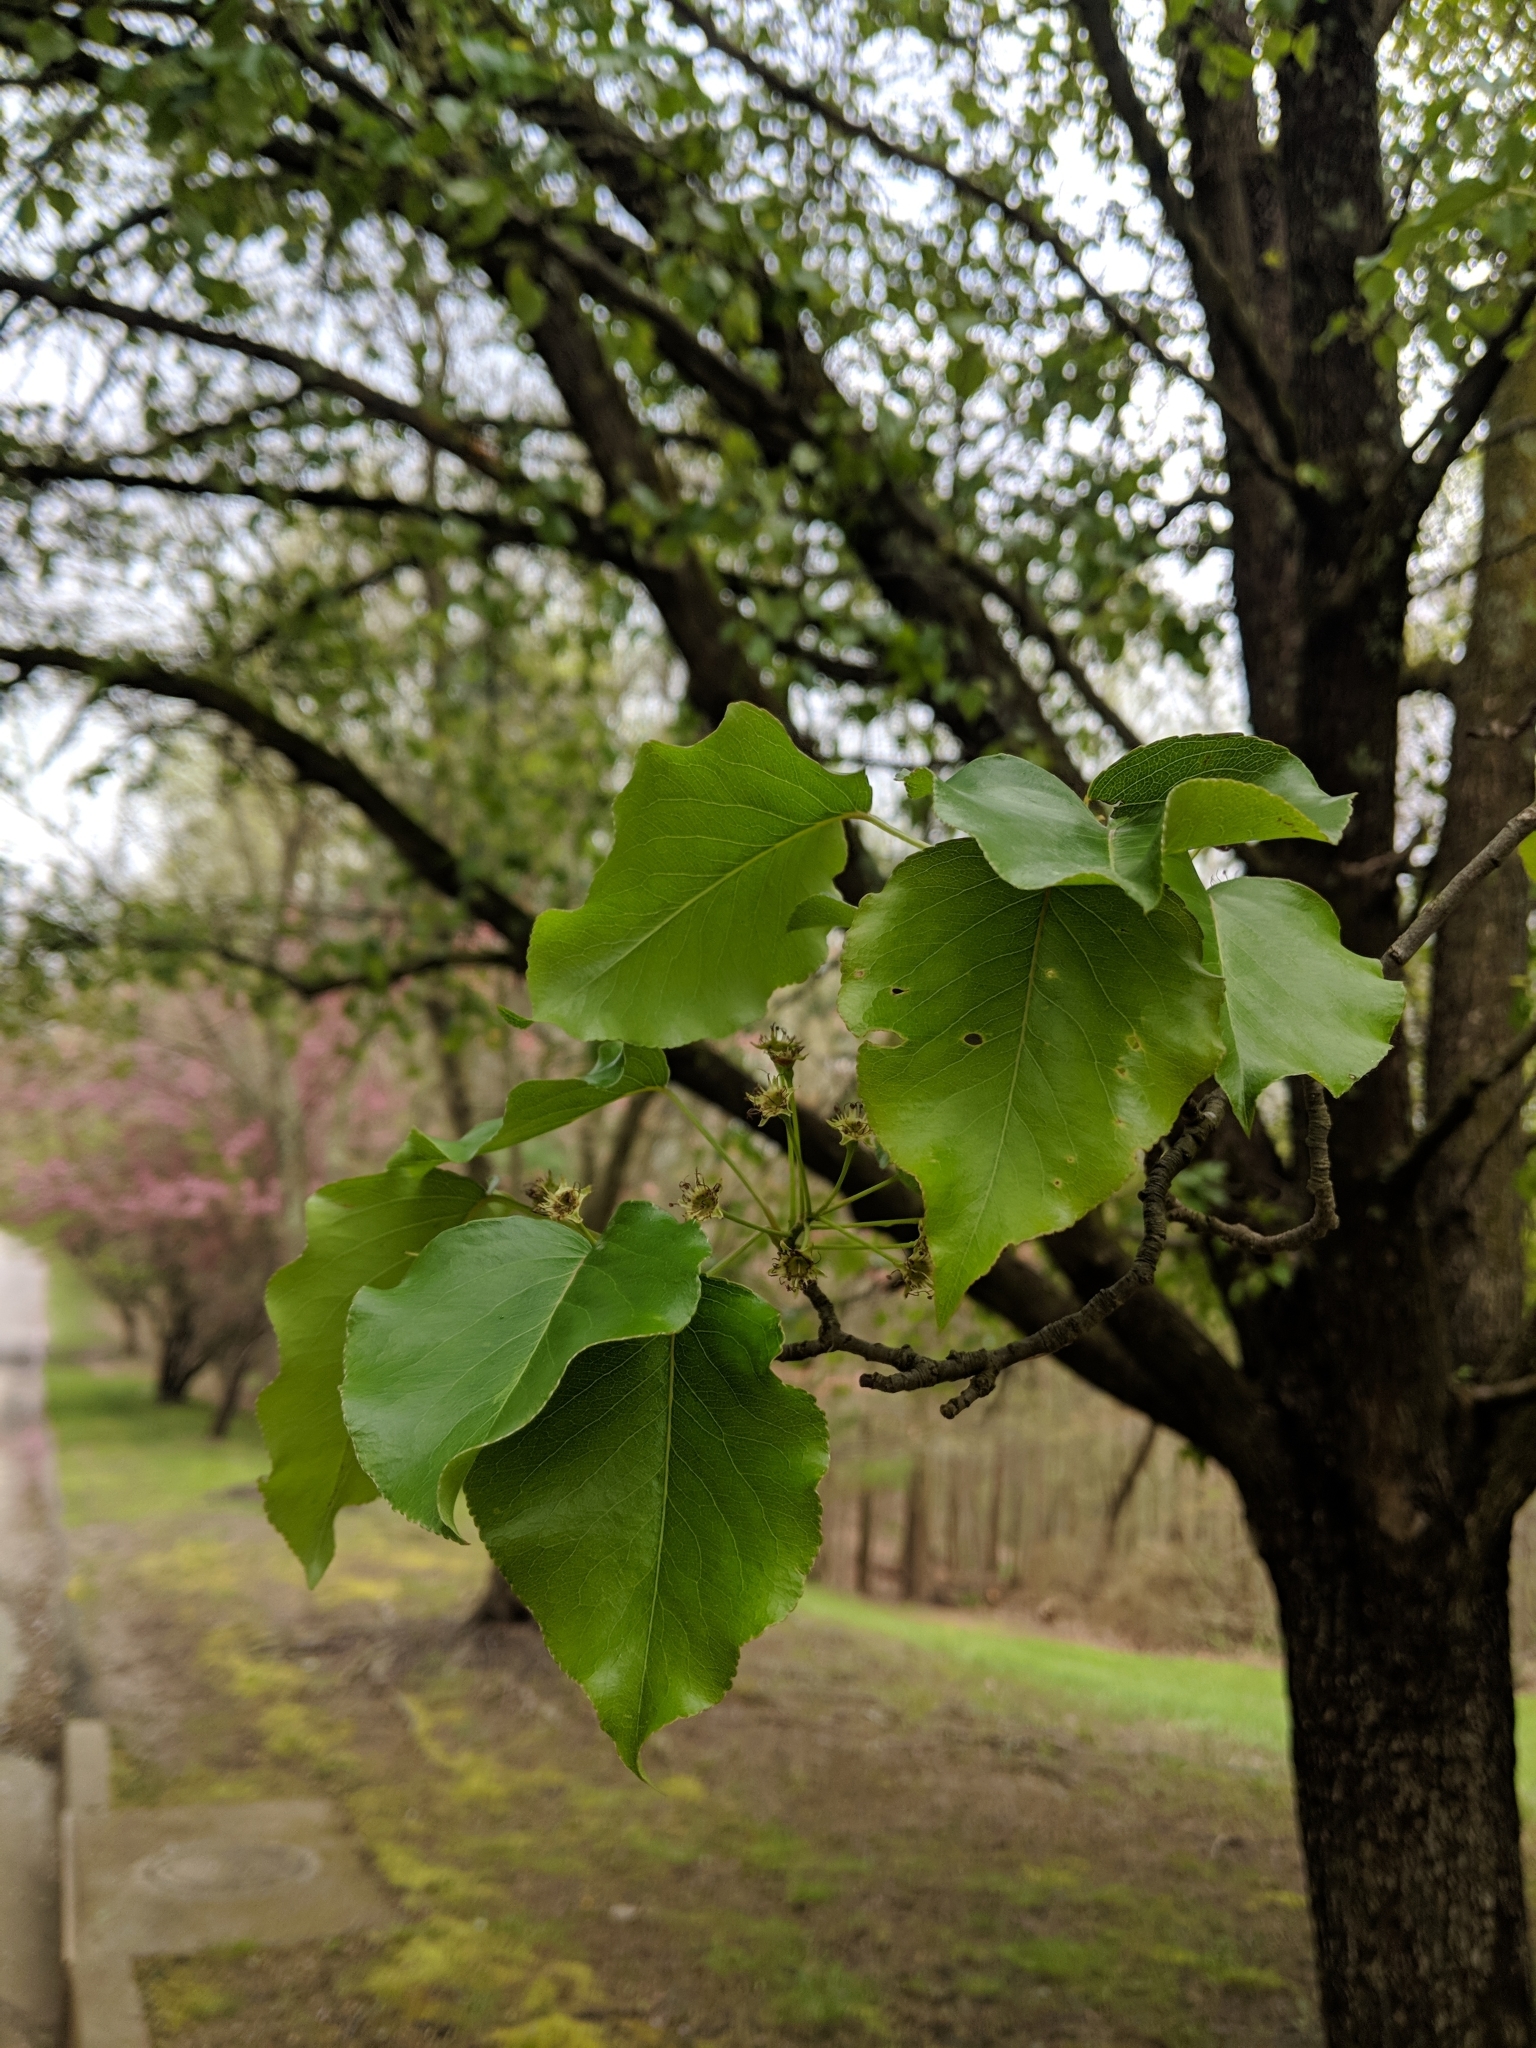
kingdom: Plantae
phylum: Tracheophyta
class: Magnoliopsida
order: Rosales
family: Rosaceae
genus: Pyrus
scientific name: Pyrus calleryana
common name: Callery pear
